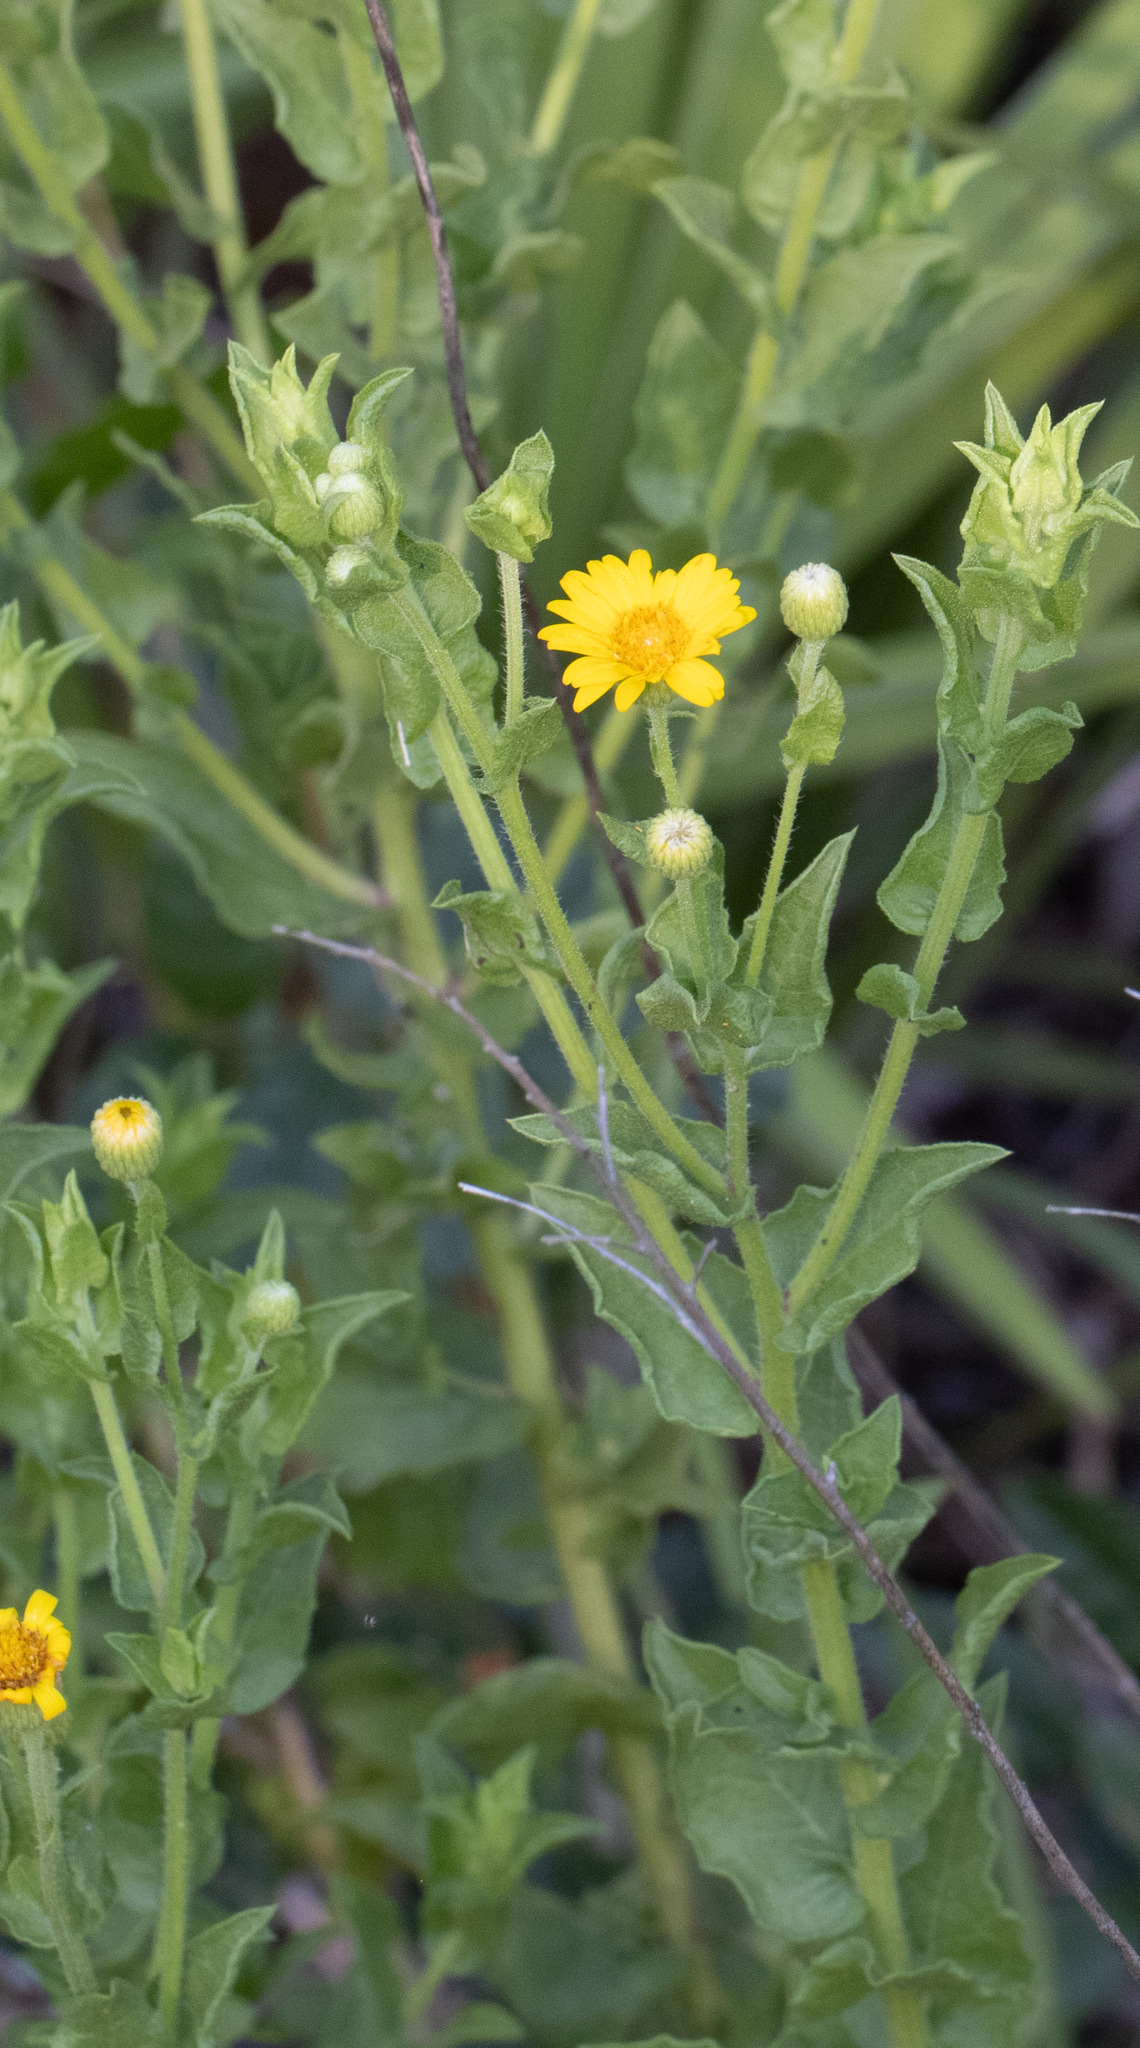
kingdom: Plantae
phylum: Tracheophyta
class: Magnoliopsida
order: Asterales
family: Asteraceae
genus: Heterotheca
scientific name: Heterotheca subaxillaris
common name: Camphorweed
